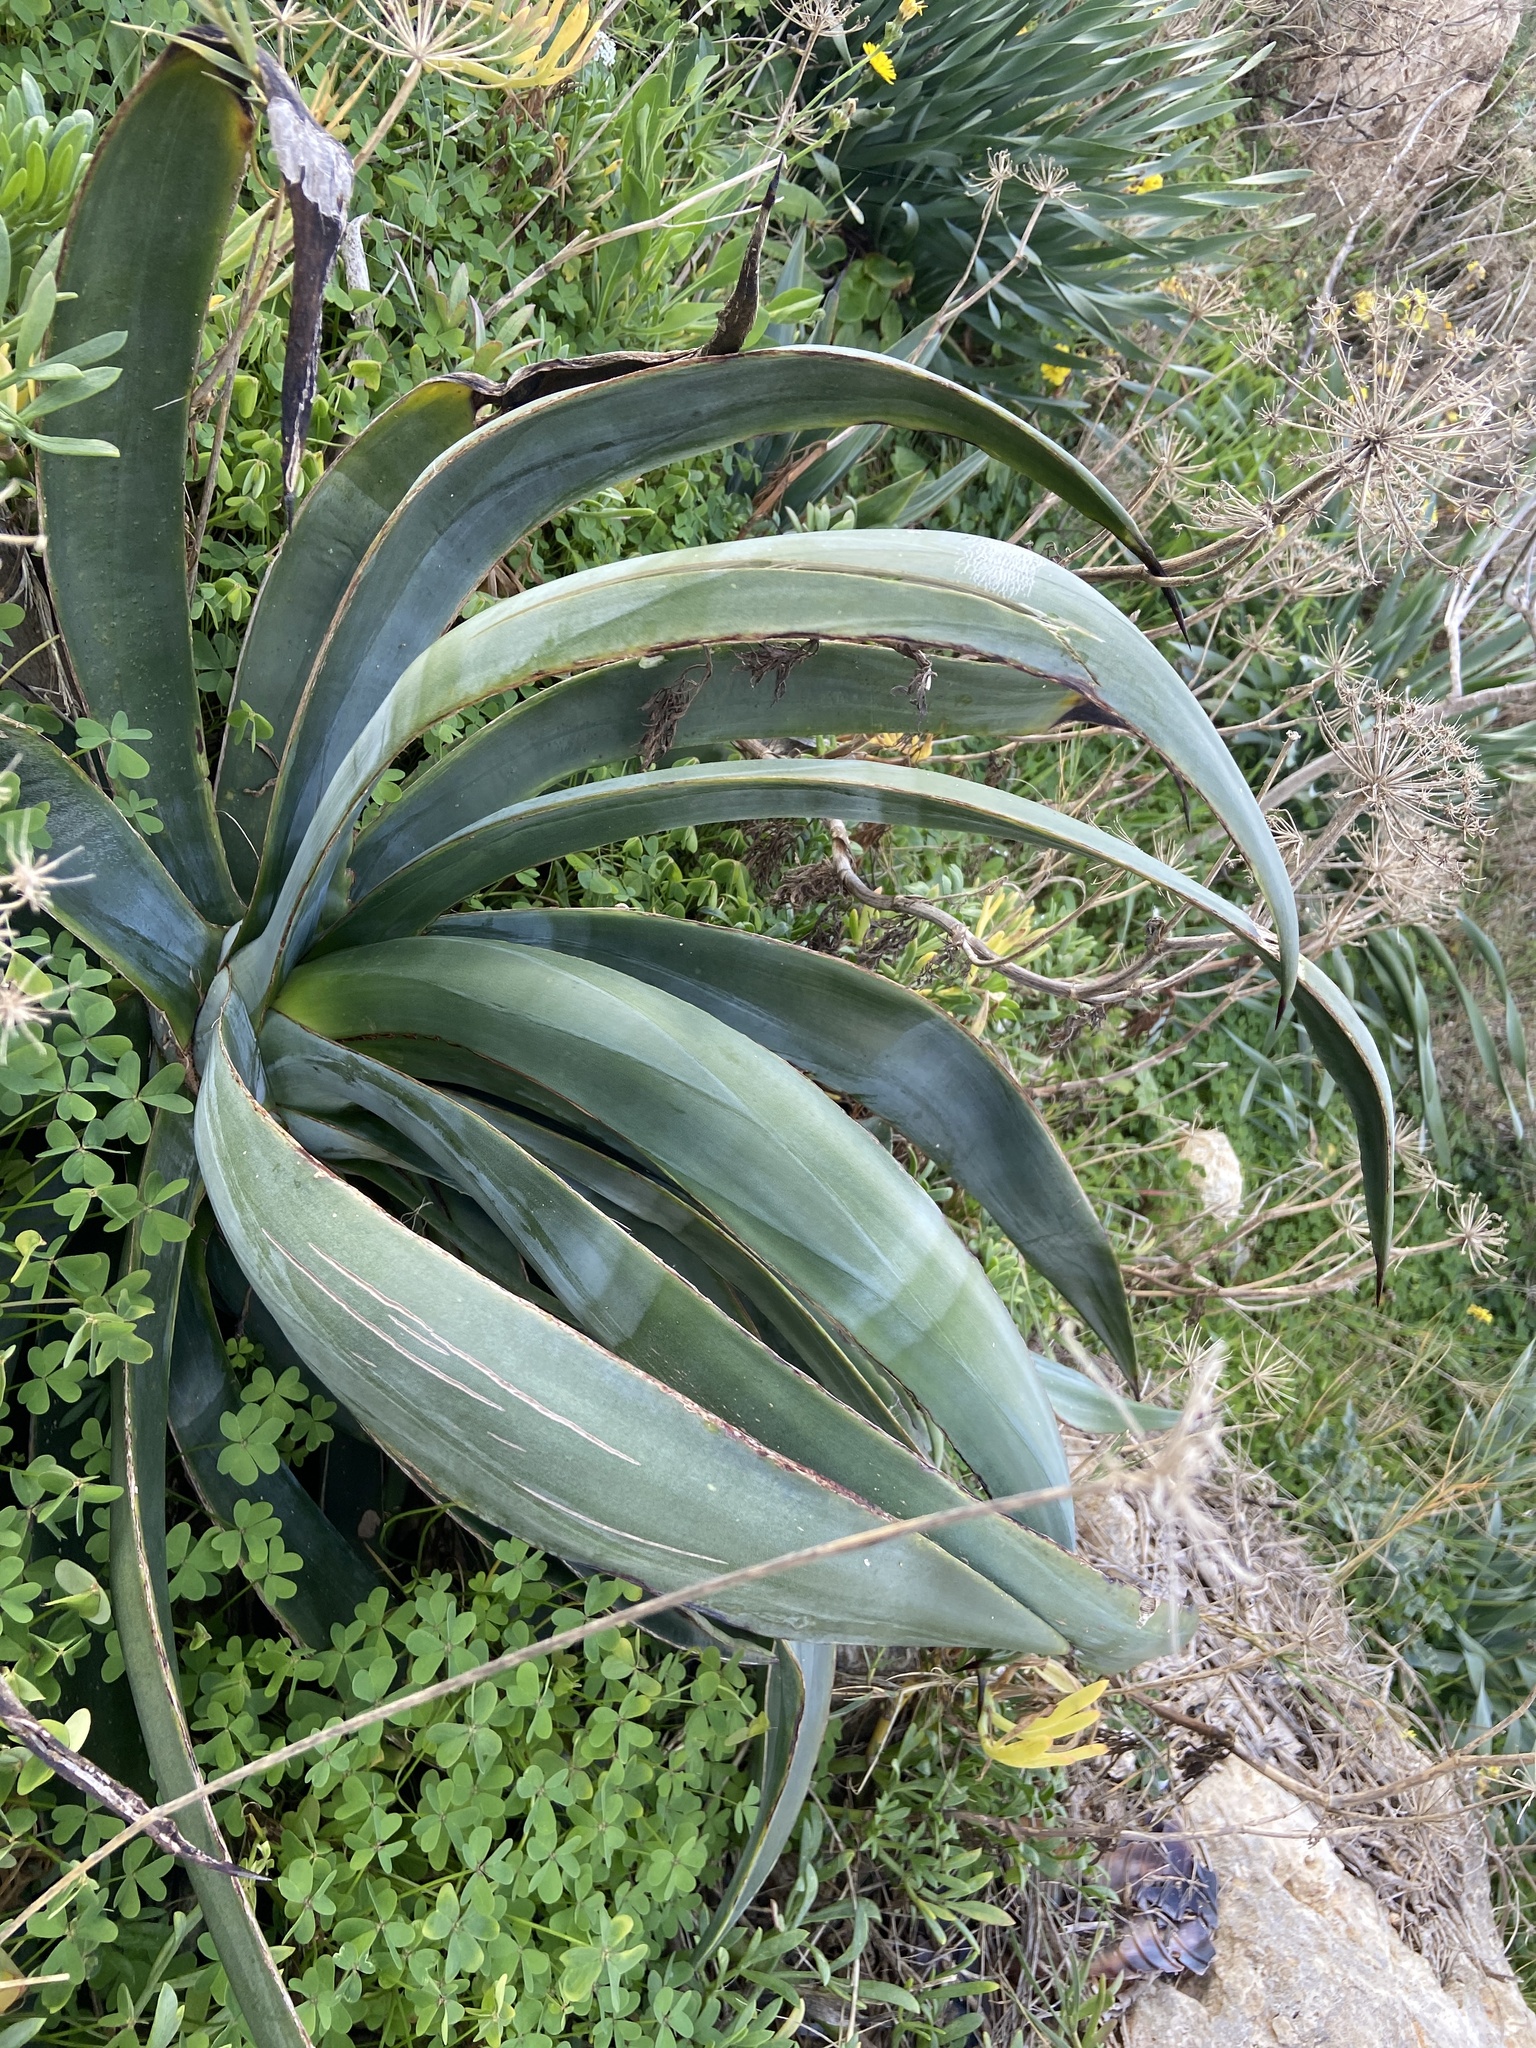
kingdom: Plantae
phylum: Tracheophyta
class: Liliopsida
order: Asparagales
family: Asparagaceae
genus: Agave
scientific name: Agave sisalana
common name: Sisal hemp
